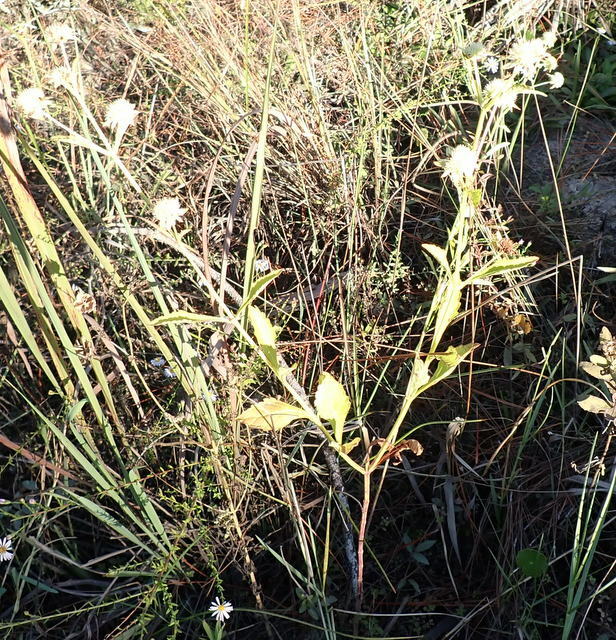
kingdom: Plantae
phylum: Tracheophyta
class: Magnoliopsida
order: Lamiales
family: Lamiaceae
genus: Hyptis
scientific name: Hyptis alata
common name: Cluster bush-mint
